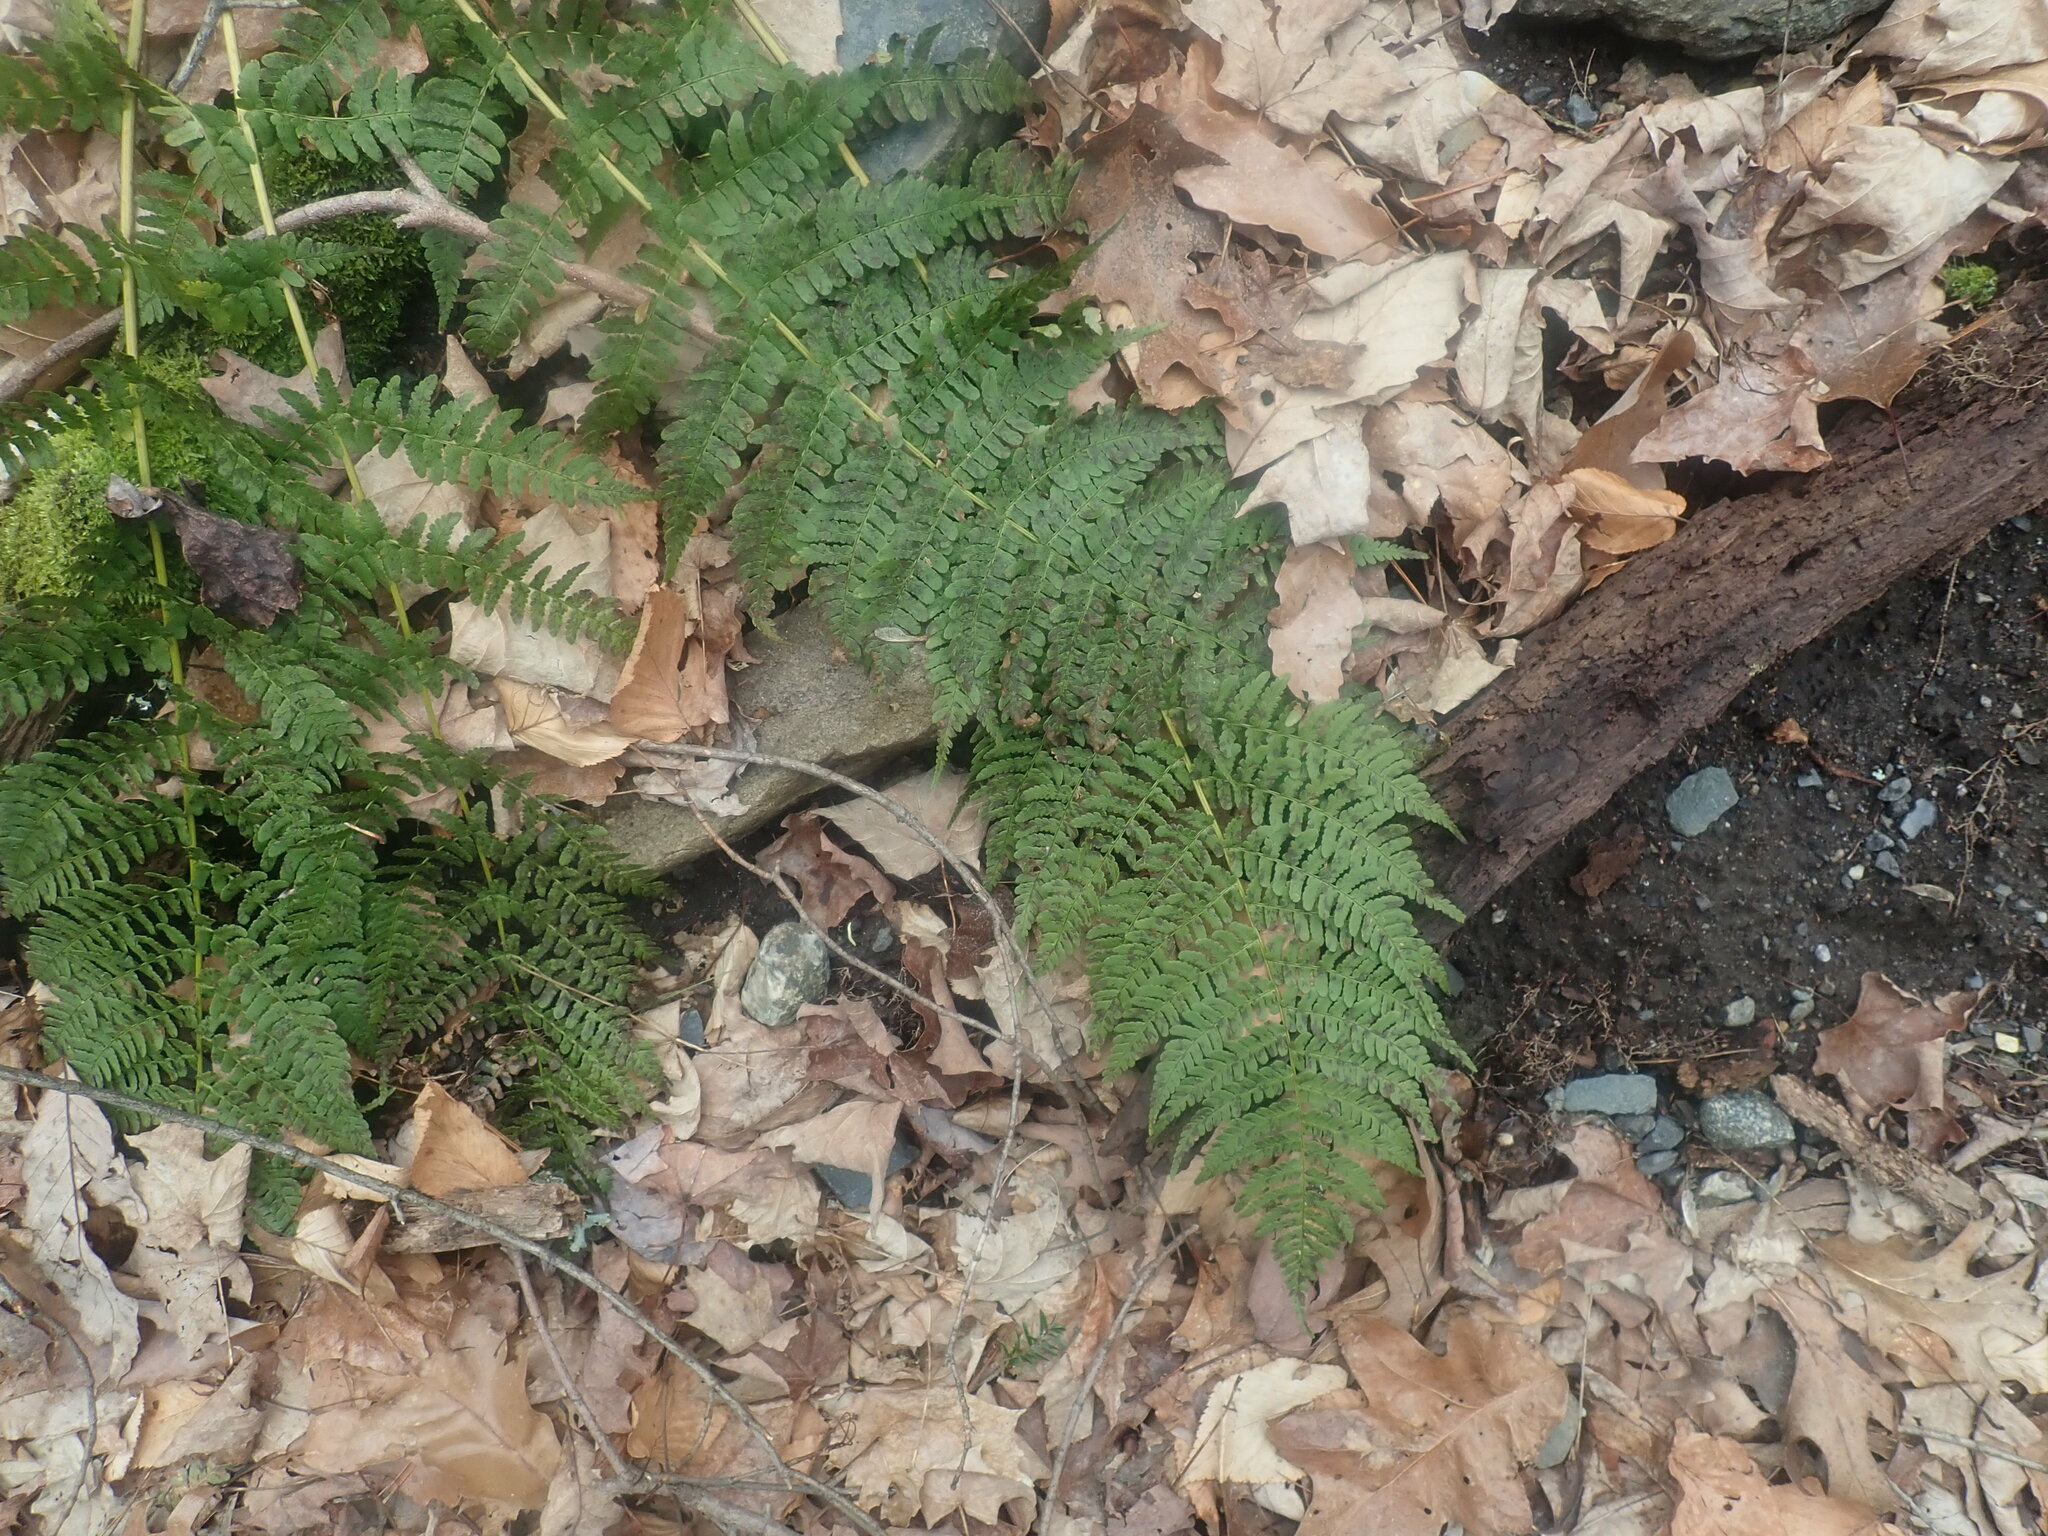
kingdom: Plantae
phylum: Tracheophyta
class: Polypodiopsida
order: Polypodiales
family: Dryopteridaceae
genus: Dryopteris
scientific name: Dryopteris marginalis
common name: Marginal wood fern
